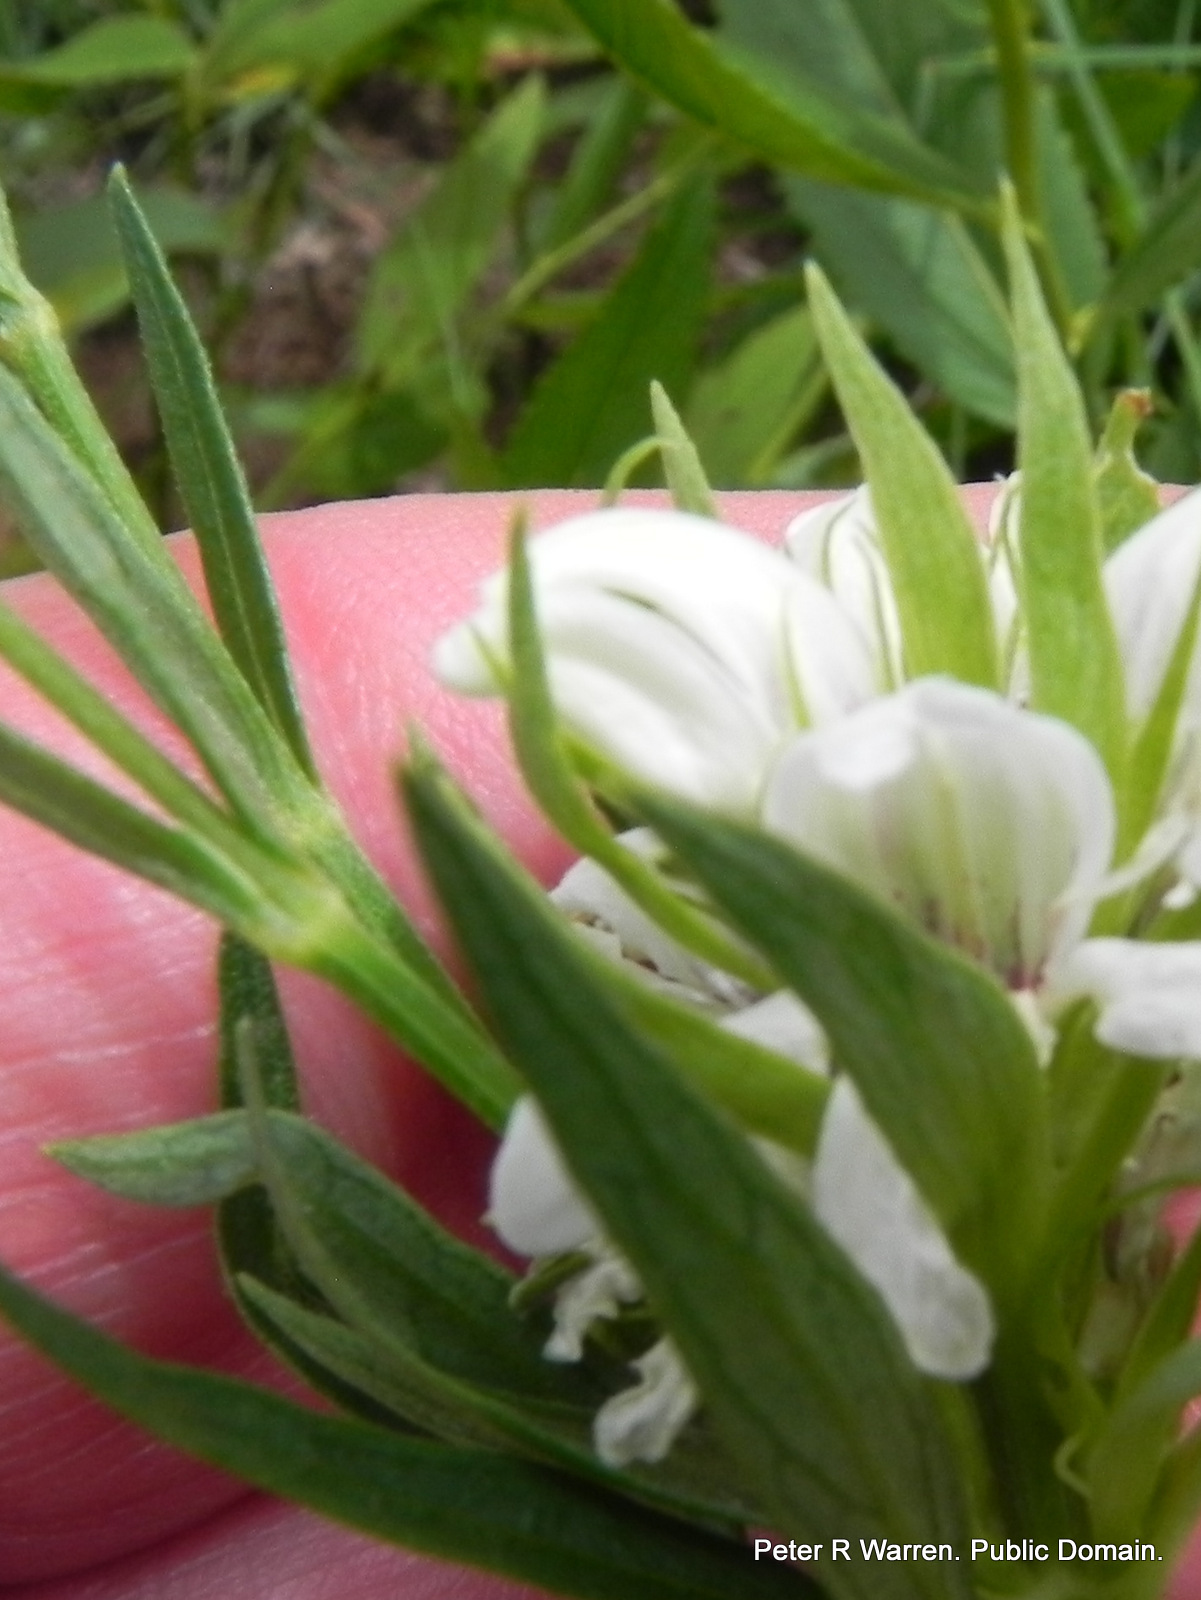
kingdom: Plantae
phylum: Tracheophyta
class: Magnoliopsida
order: Lamiales
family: Acanthaceae
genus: Justicia
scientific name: Justicia andromeda
